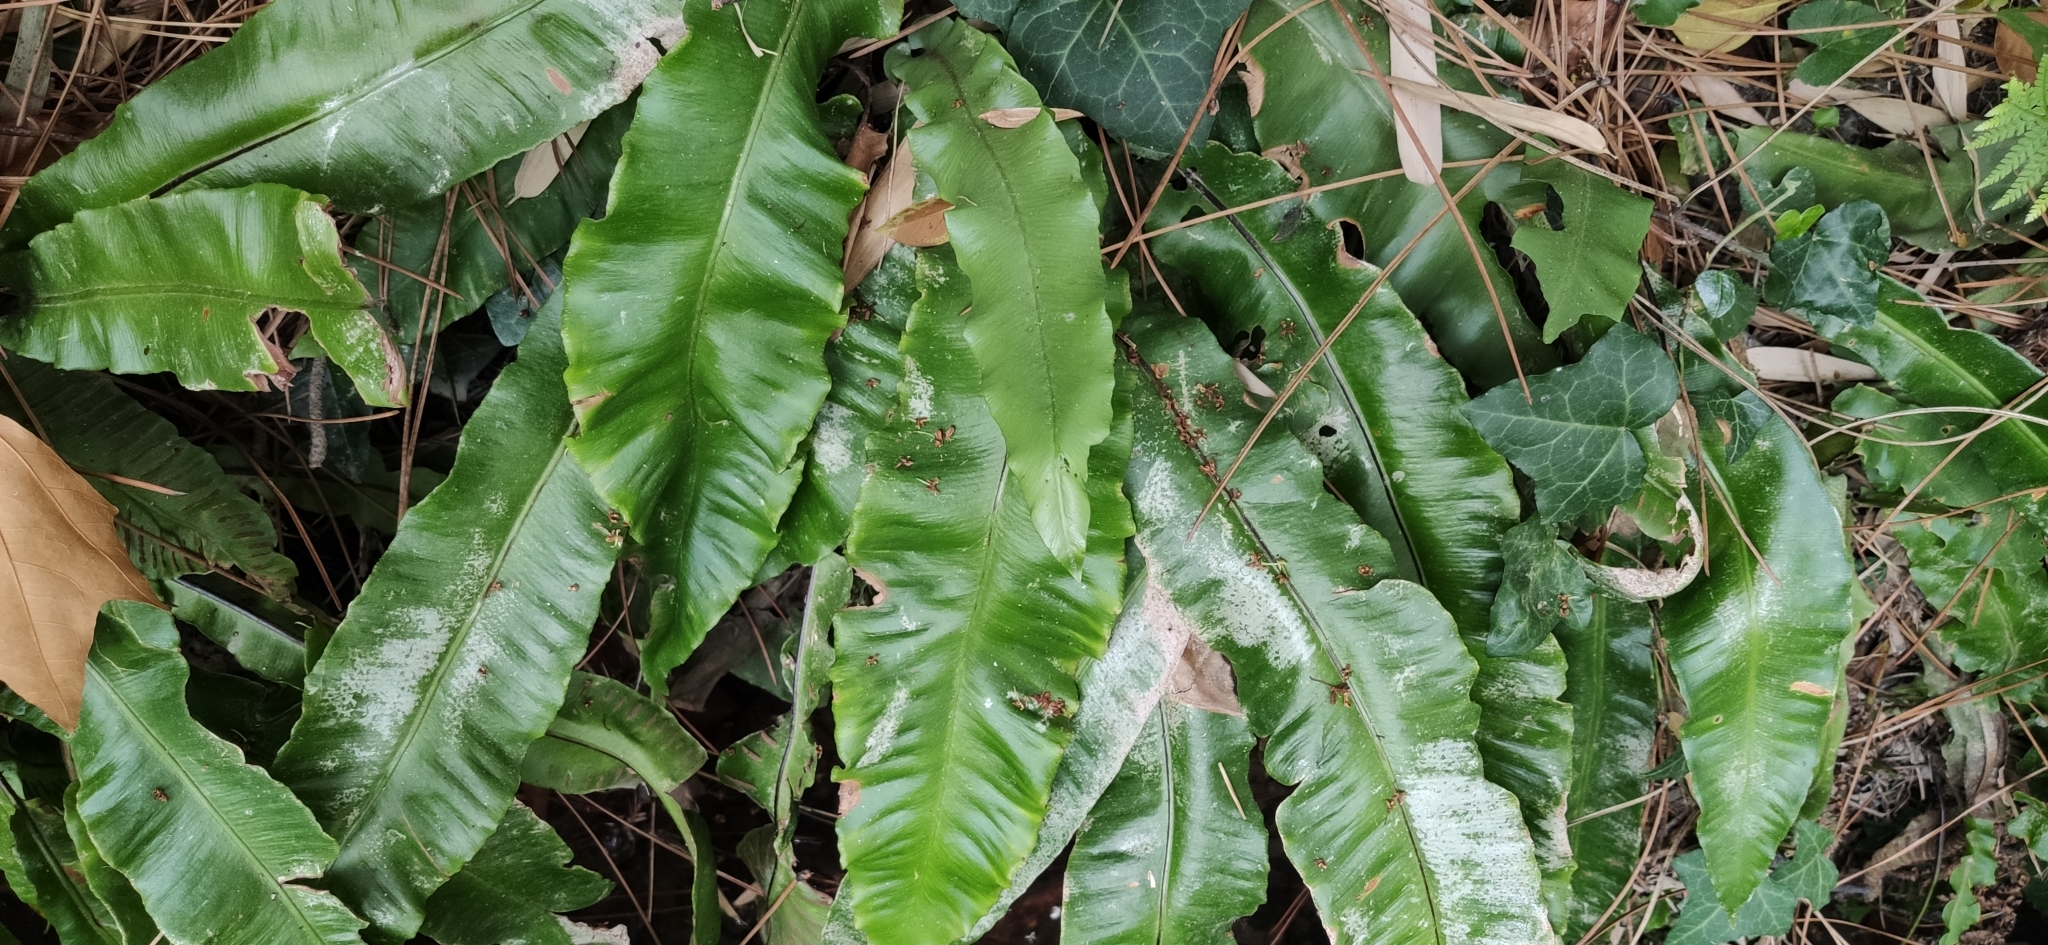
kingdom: Plantae
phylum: Tracheophyta
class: Polypodiopsida
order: Polypodiales
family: Aspleniaceae
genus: Asplenium
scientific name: Asplenium scolopendrium
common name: Hart's-tongue fern
